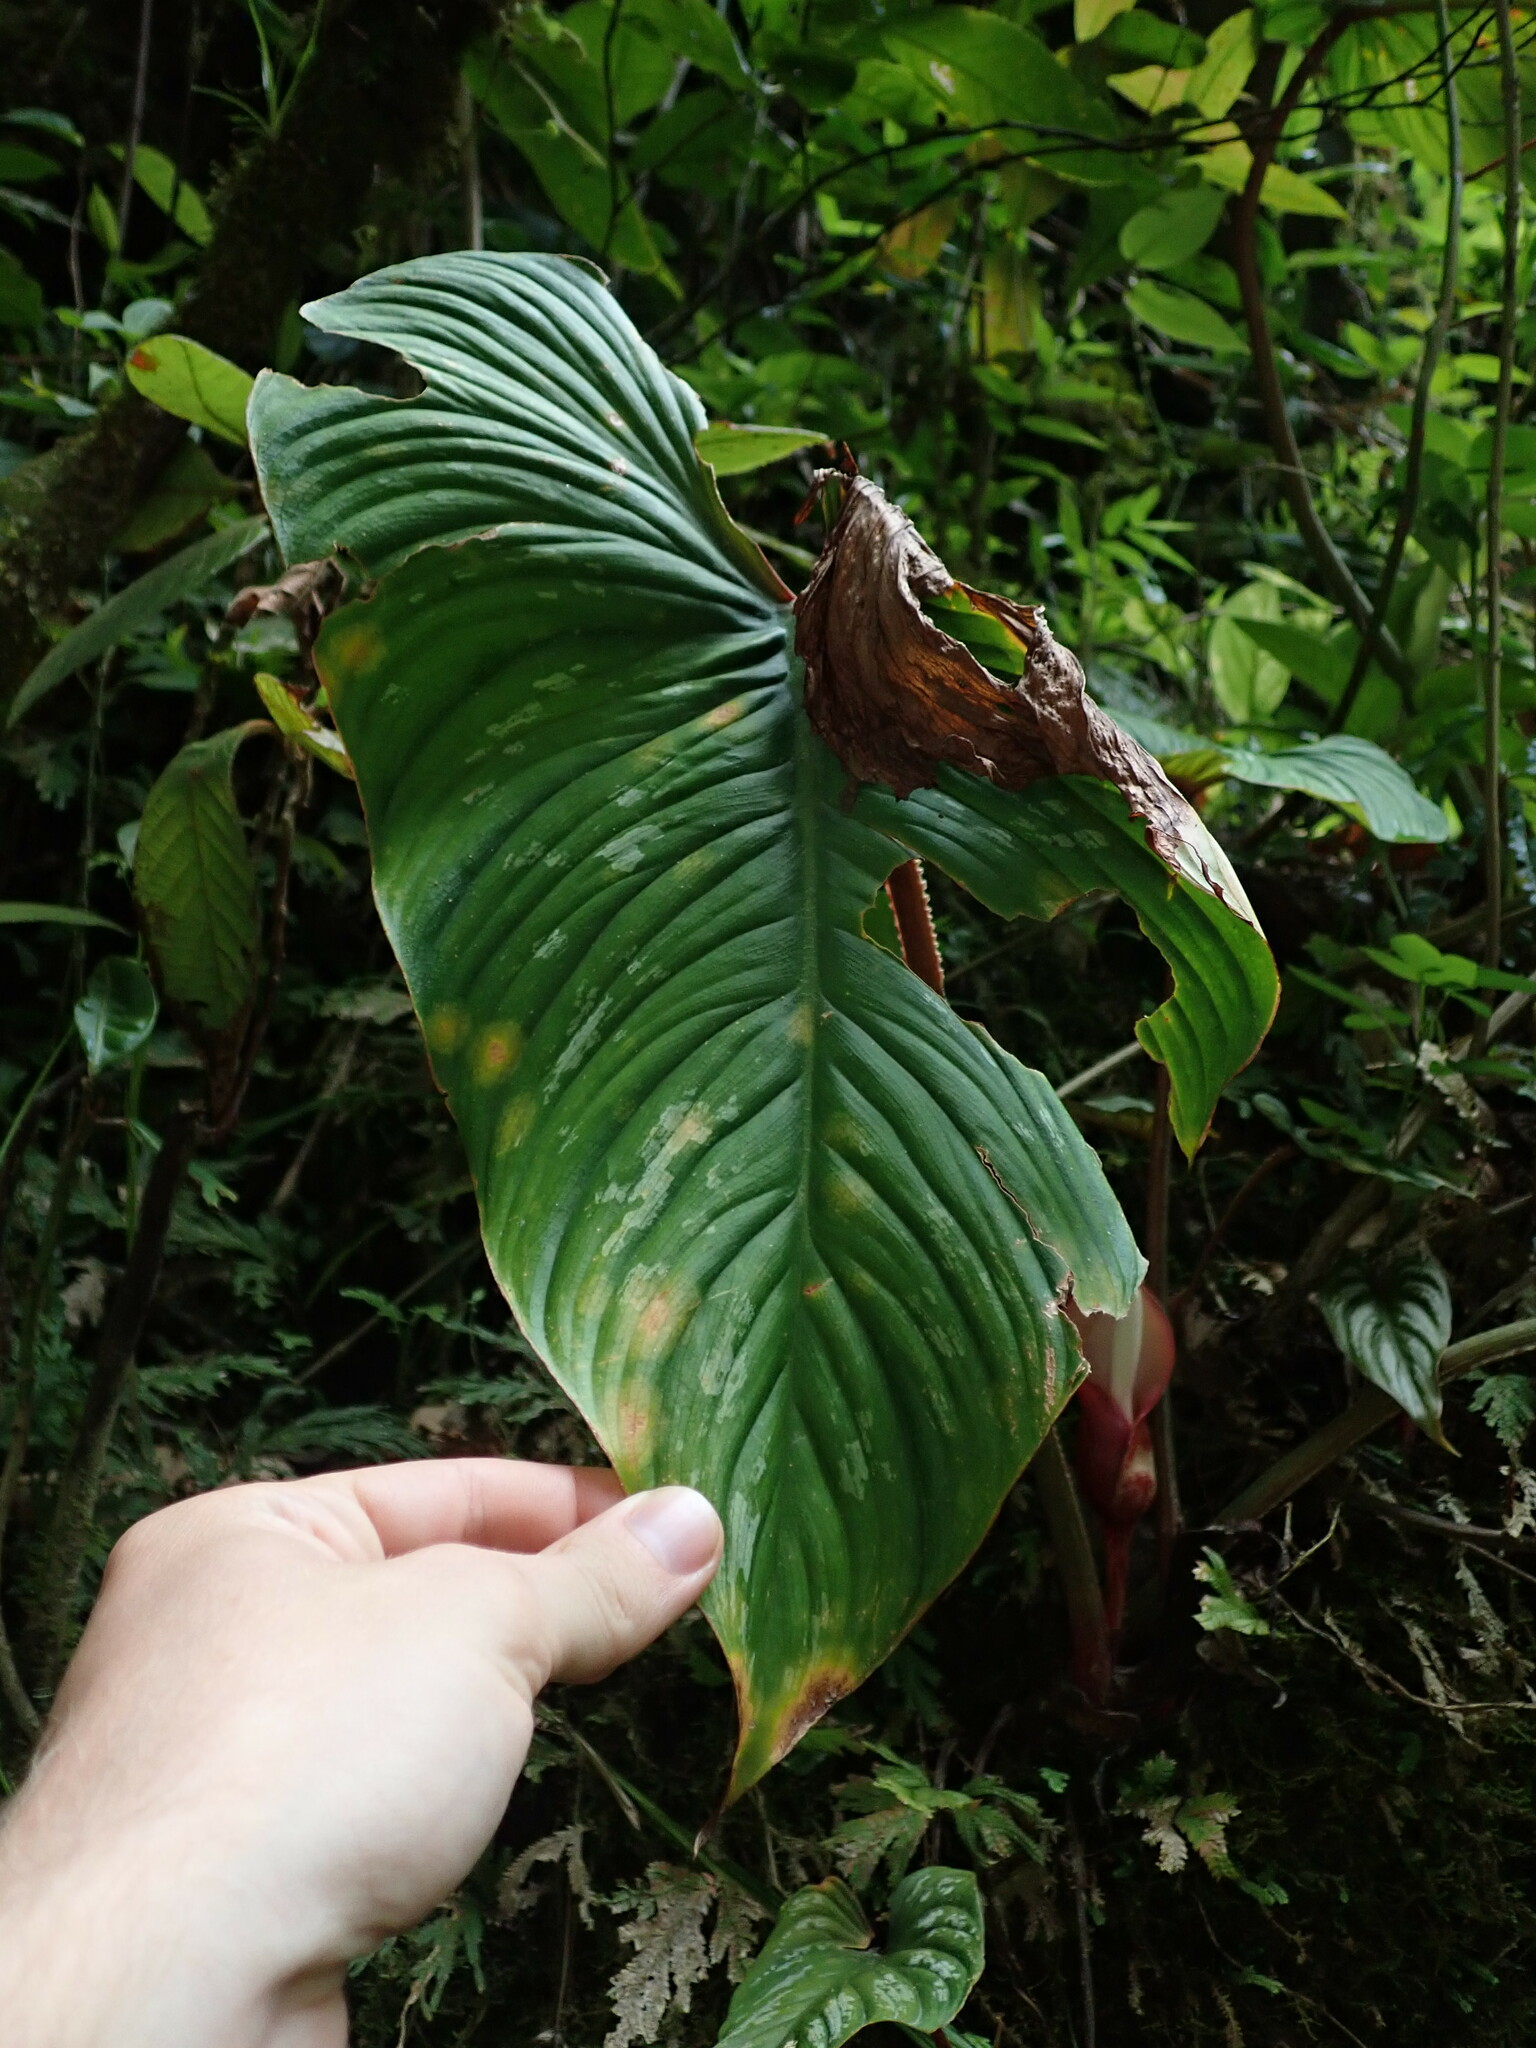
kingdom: Plantae
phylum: Tracheophyta
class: Liliopsida
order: Alismatales
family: Araceae
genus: Philodendron
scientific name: Philodendron mamei
